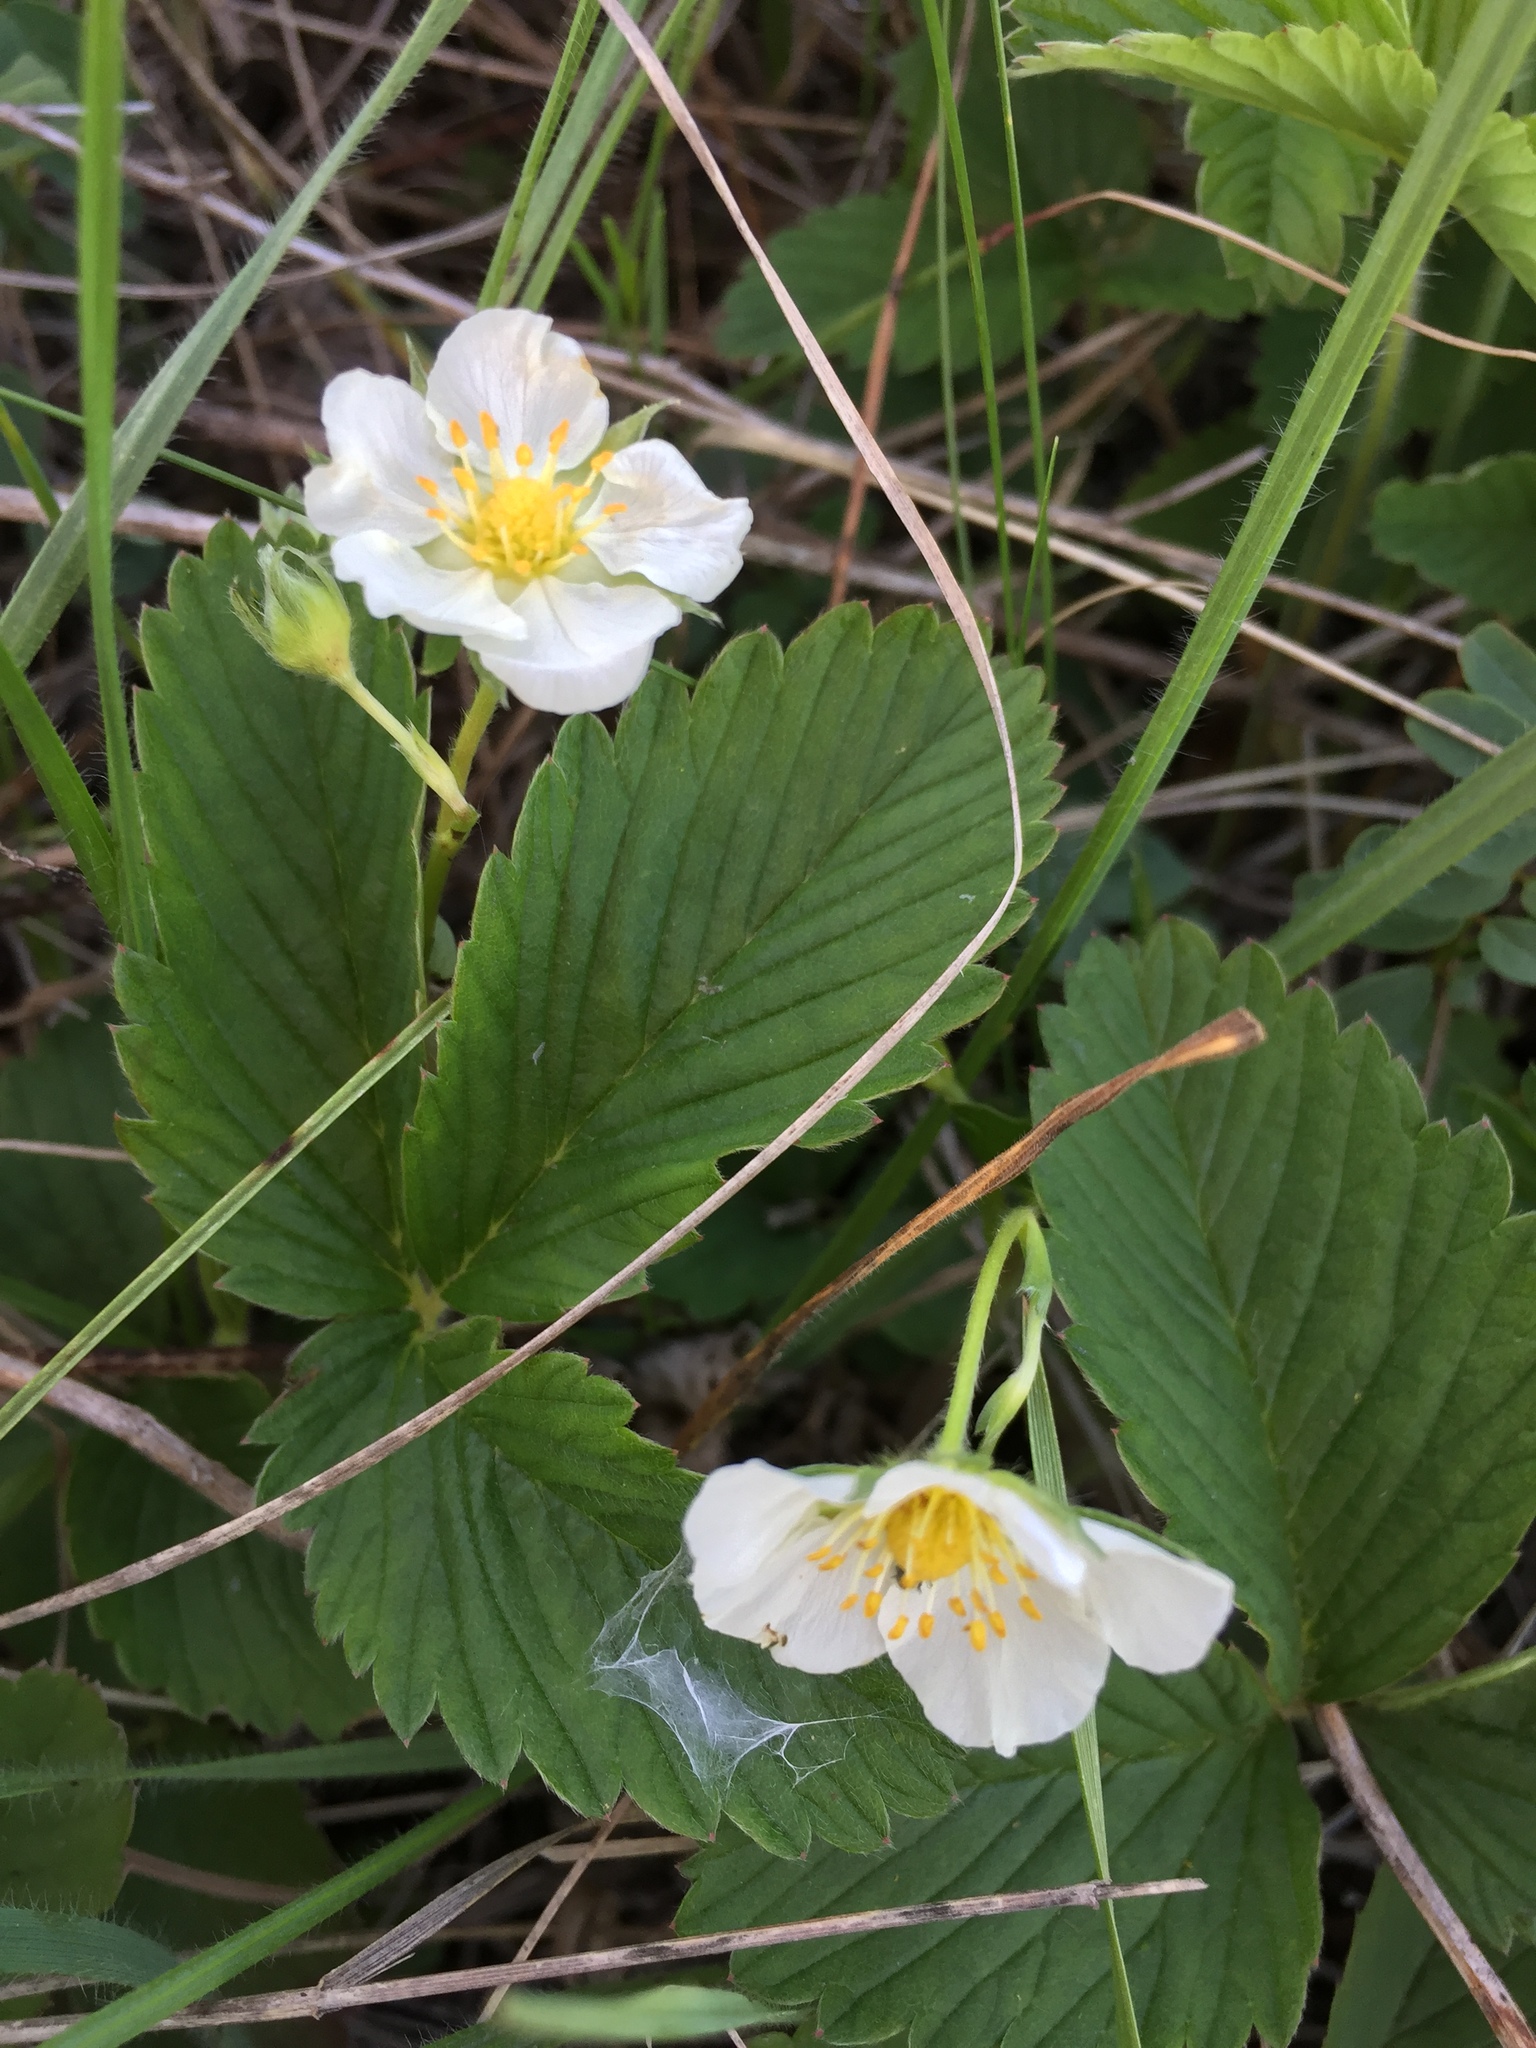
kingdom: Plantae
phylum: Tracheophyta
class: Magnoliopsida
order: Rosales
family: Rosaceae
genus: Fragaria
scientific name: Fragaria viridis
